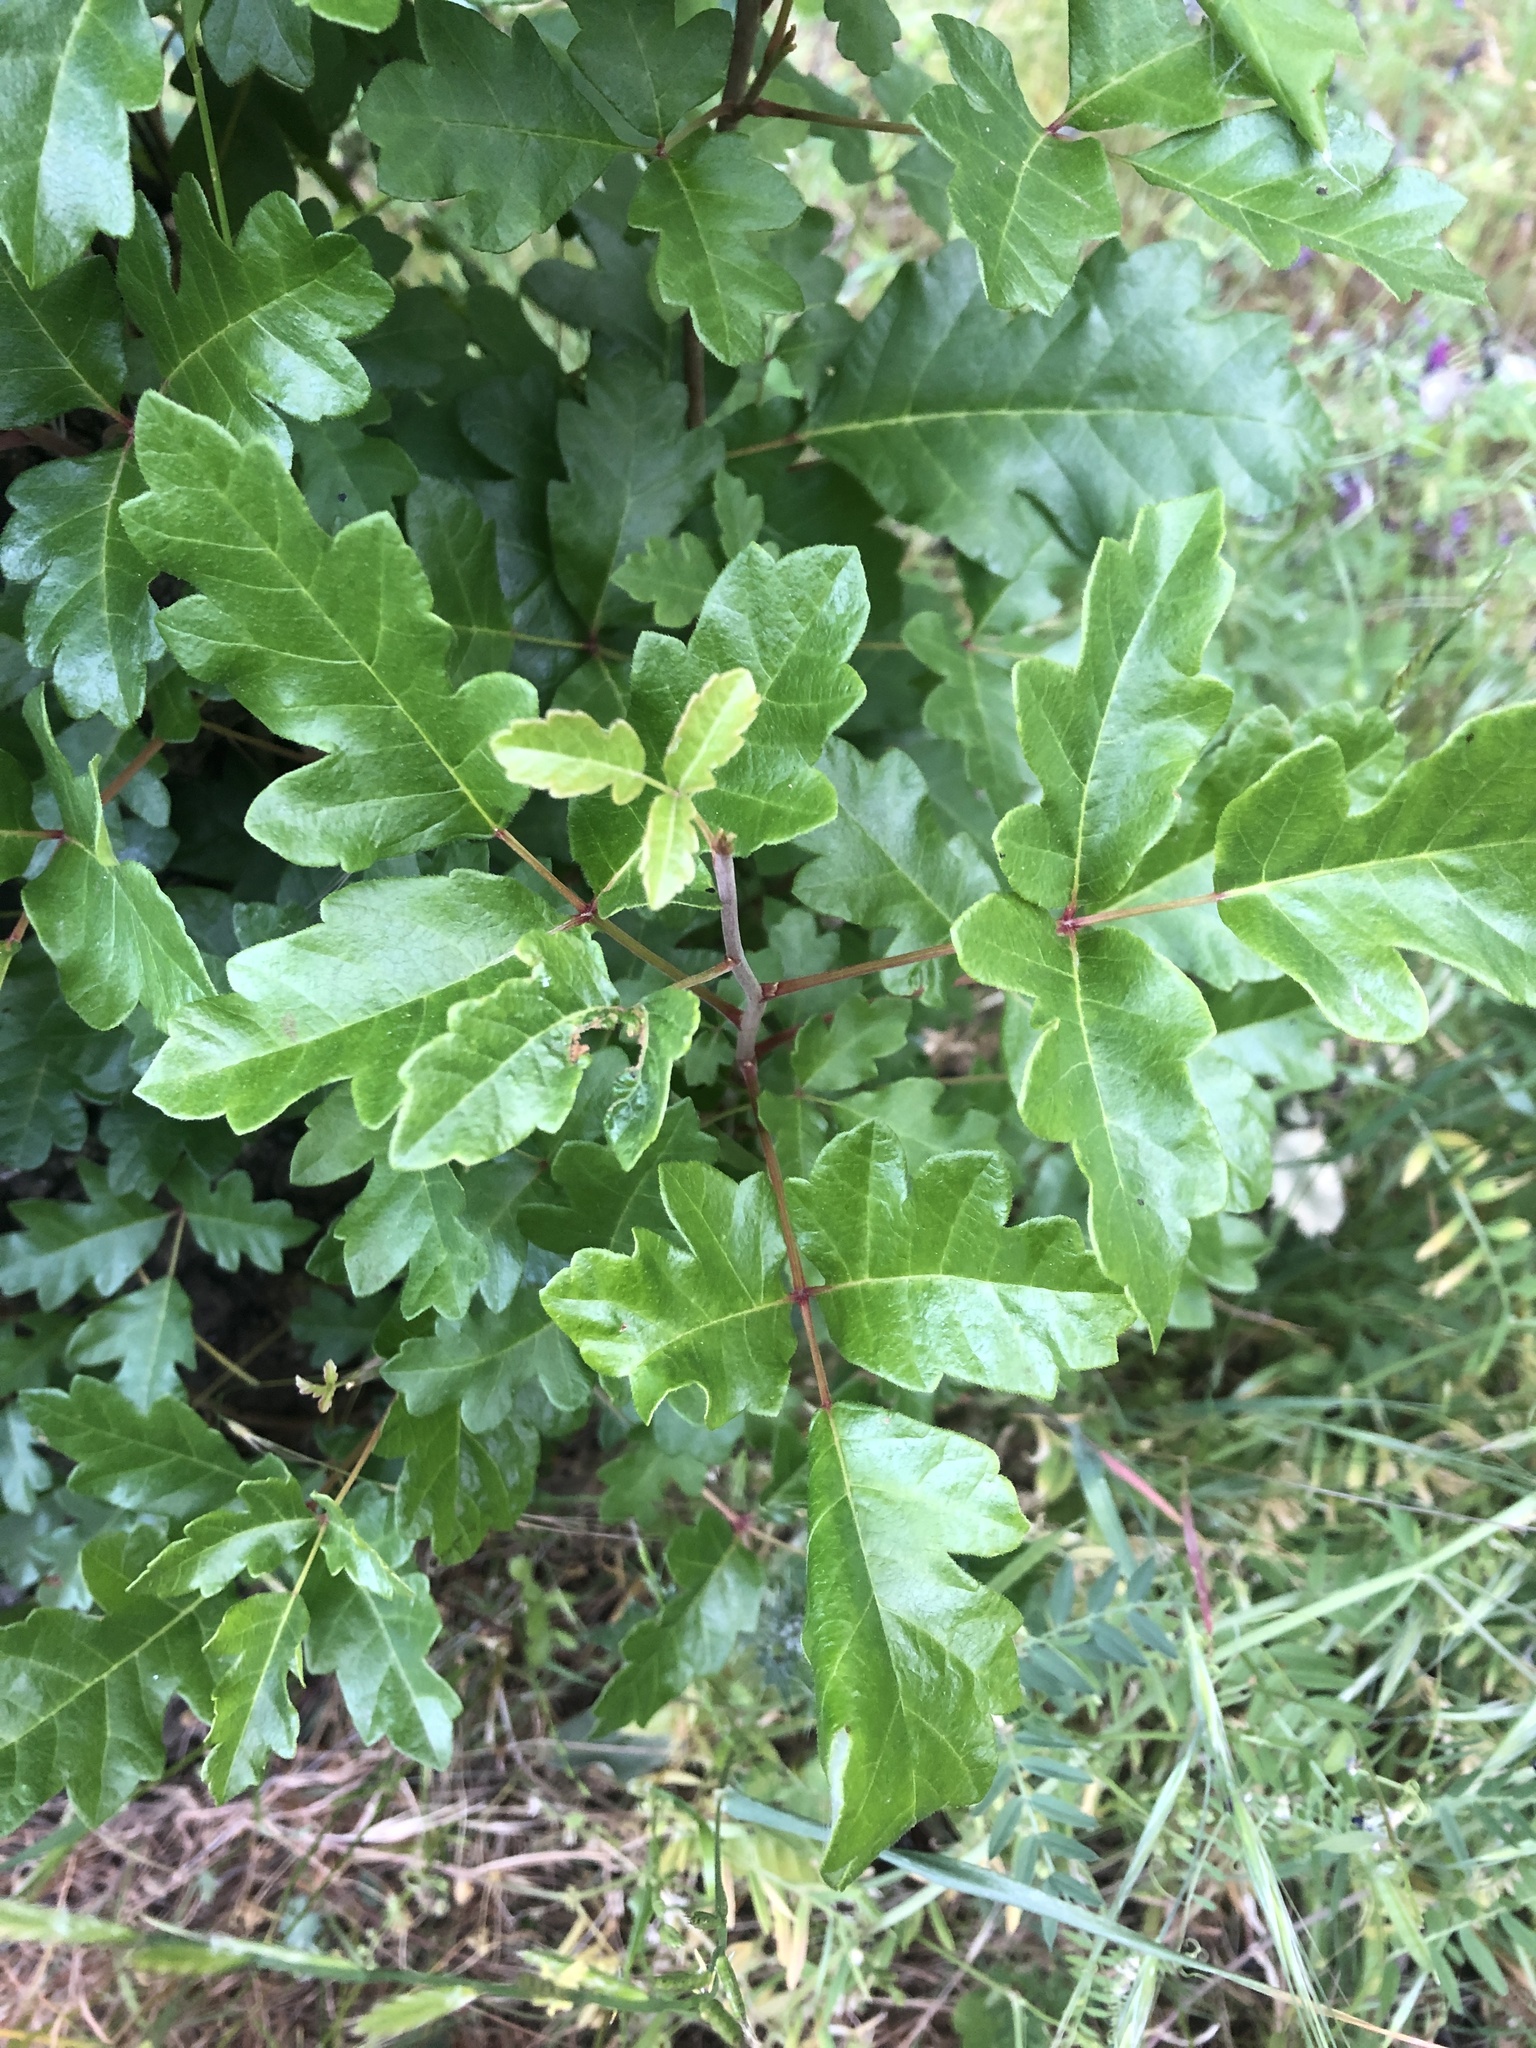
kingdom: Plantae
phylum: Tracheophyta
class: Magnoliopsida
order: Sapindales
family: Anacardiaceae
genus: Toxicodendron
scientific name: Toxicodendron diversilobum
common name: Pacific poison-oak
